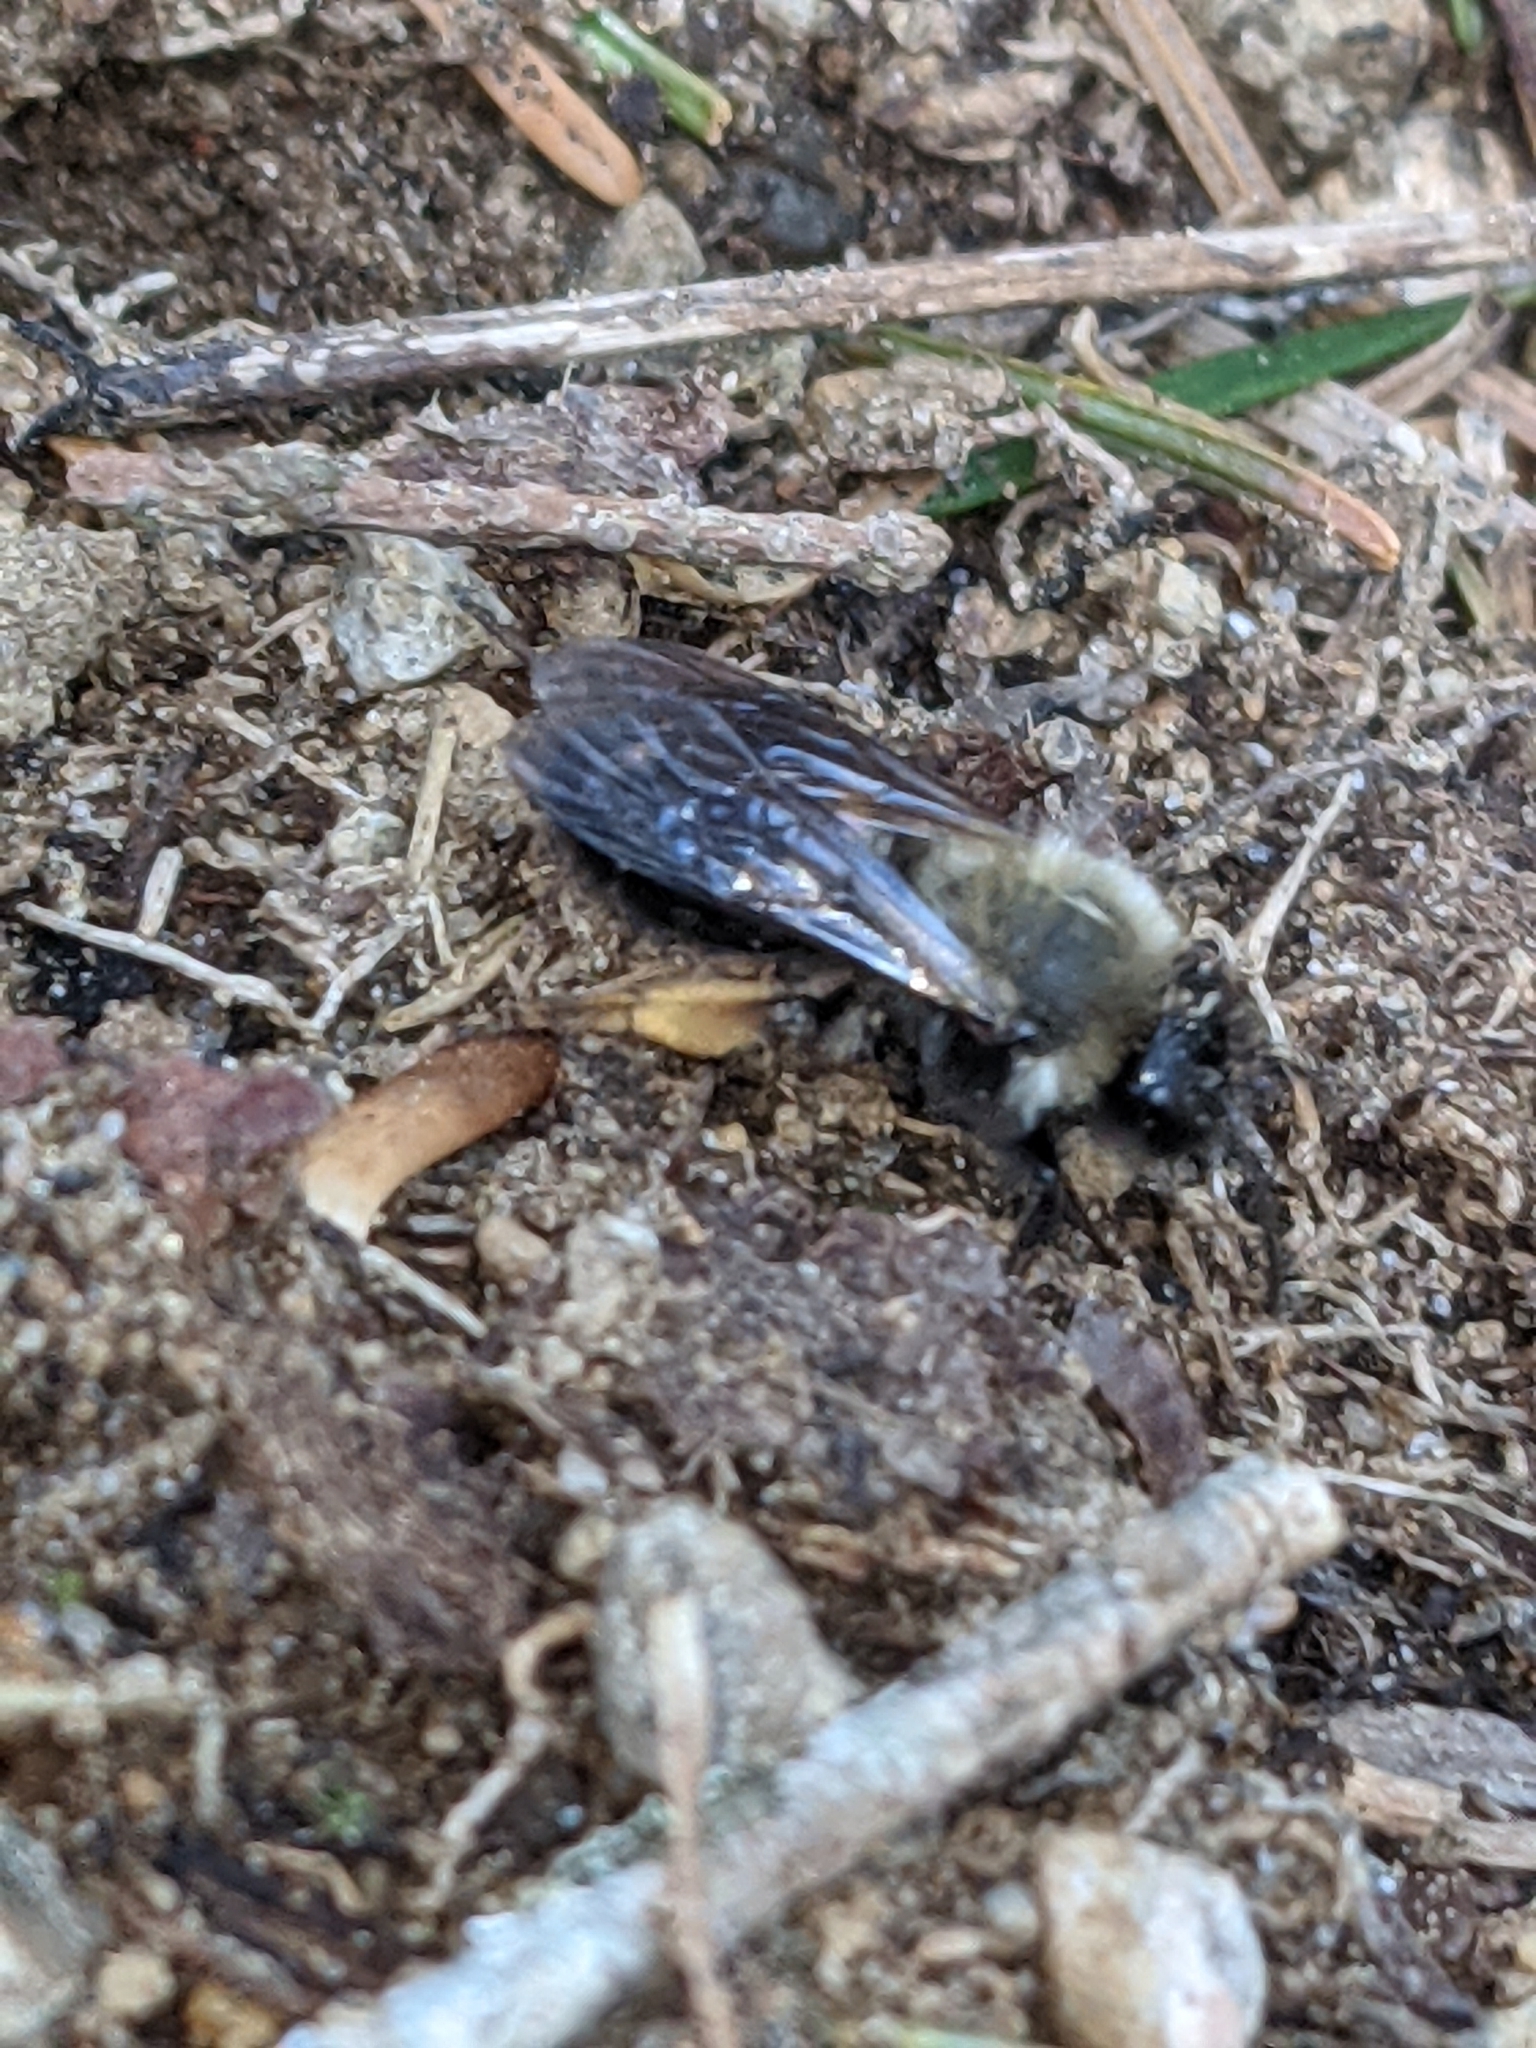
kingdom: Animalia
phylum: Arthropoda
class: Insecta
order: Hymenoptera
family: Andrenidae
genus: Andrena
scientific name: Andrena clarkella
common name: Clarke's mining bee
